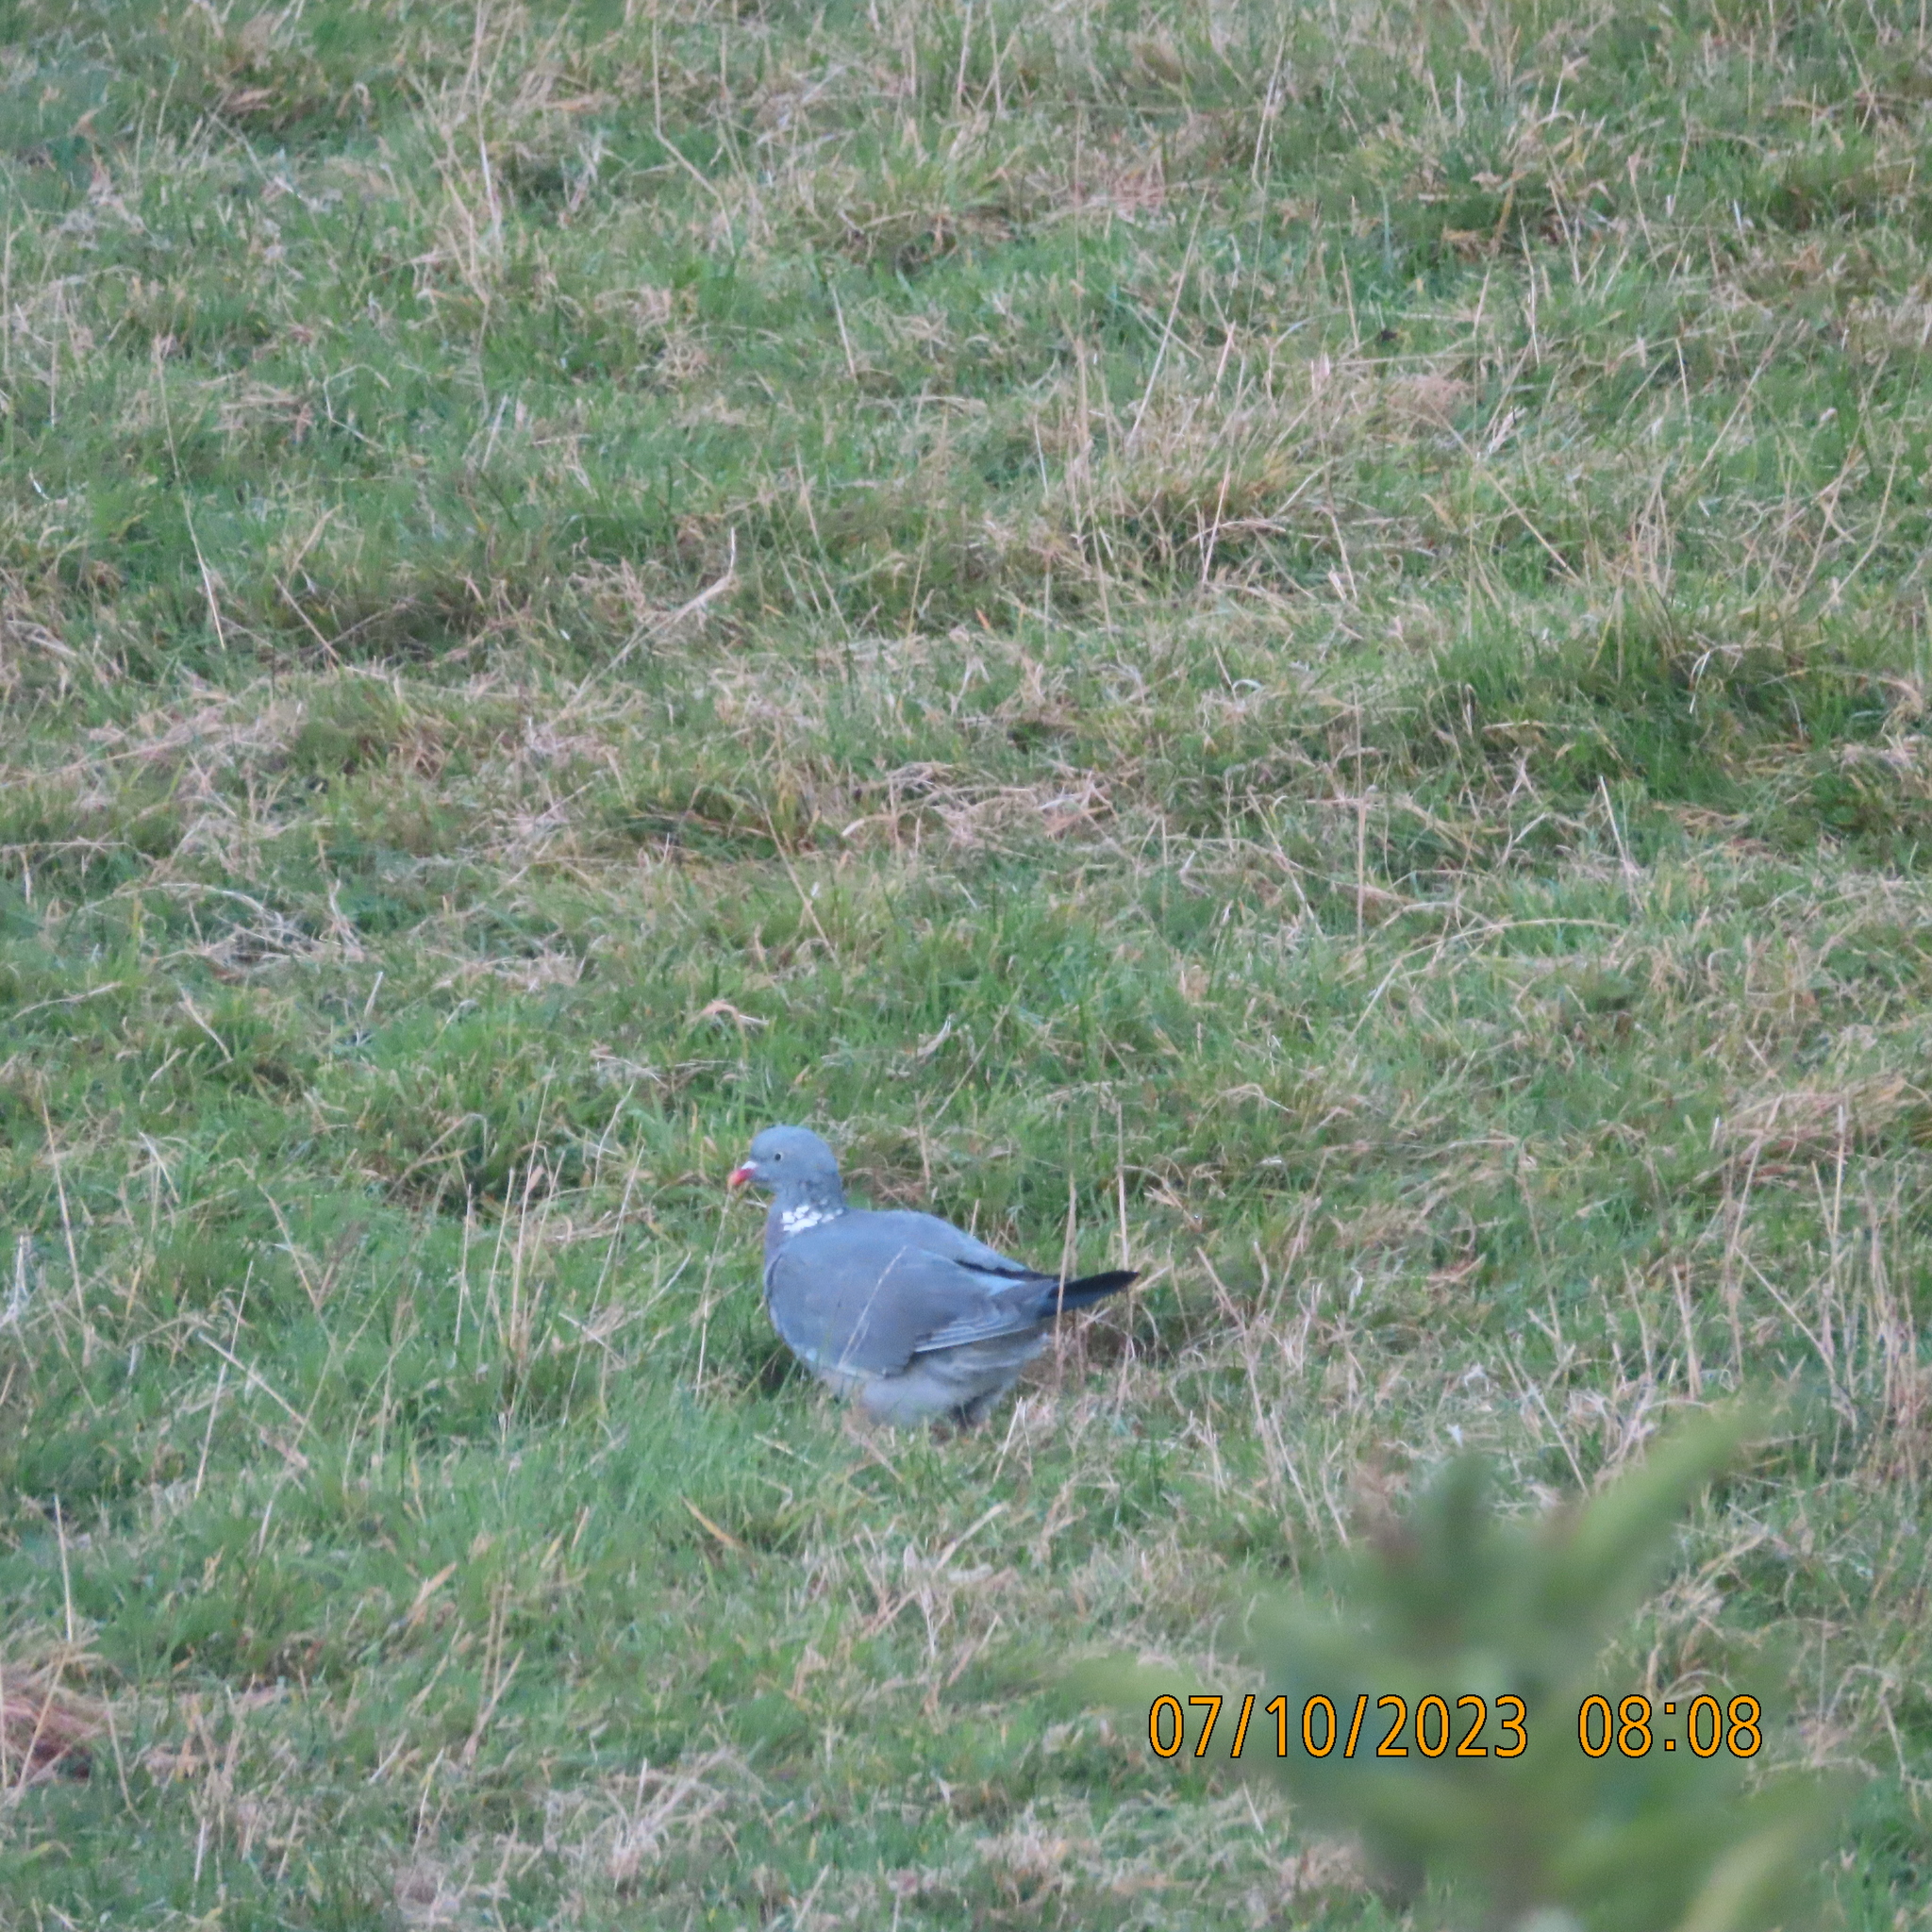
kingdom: Animalia
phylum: Chordata
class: Aves
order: Columbiformes
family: Columbidae
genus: Columba
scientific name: Columba palumbus
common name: Common wood pigeon
